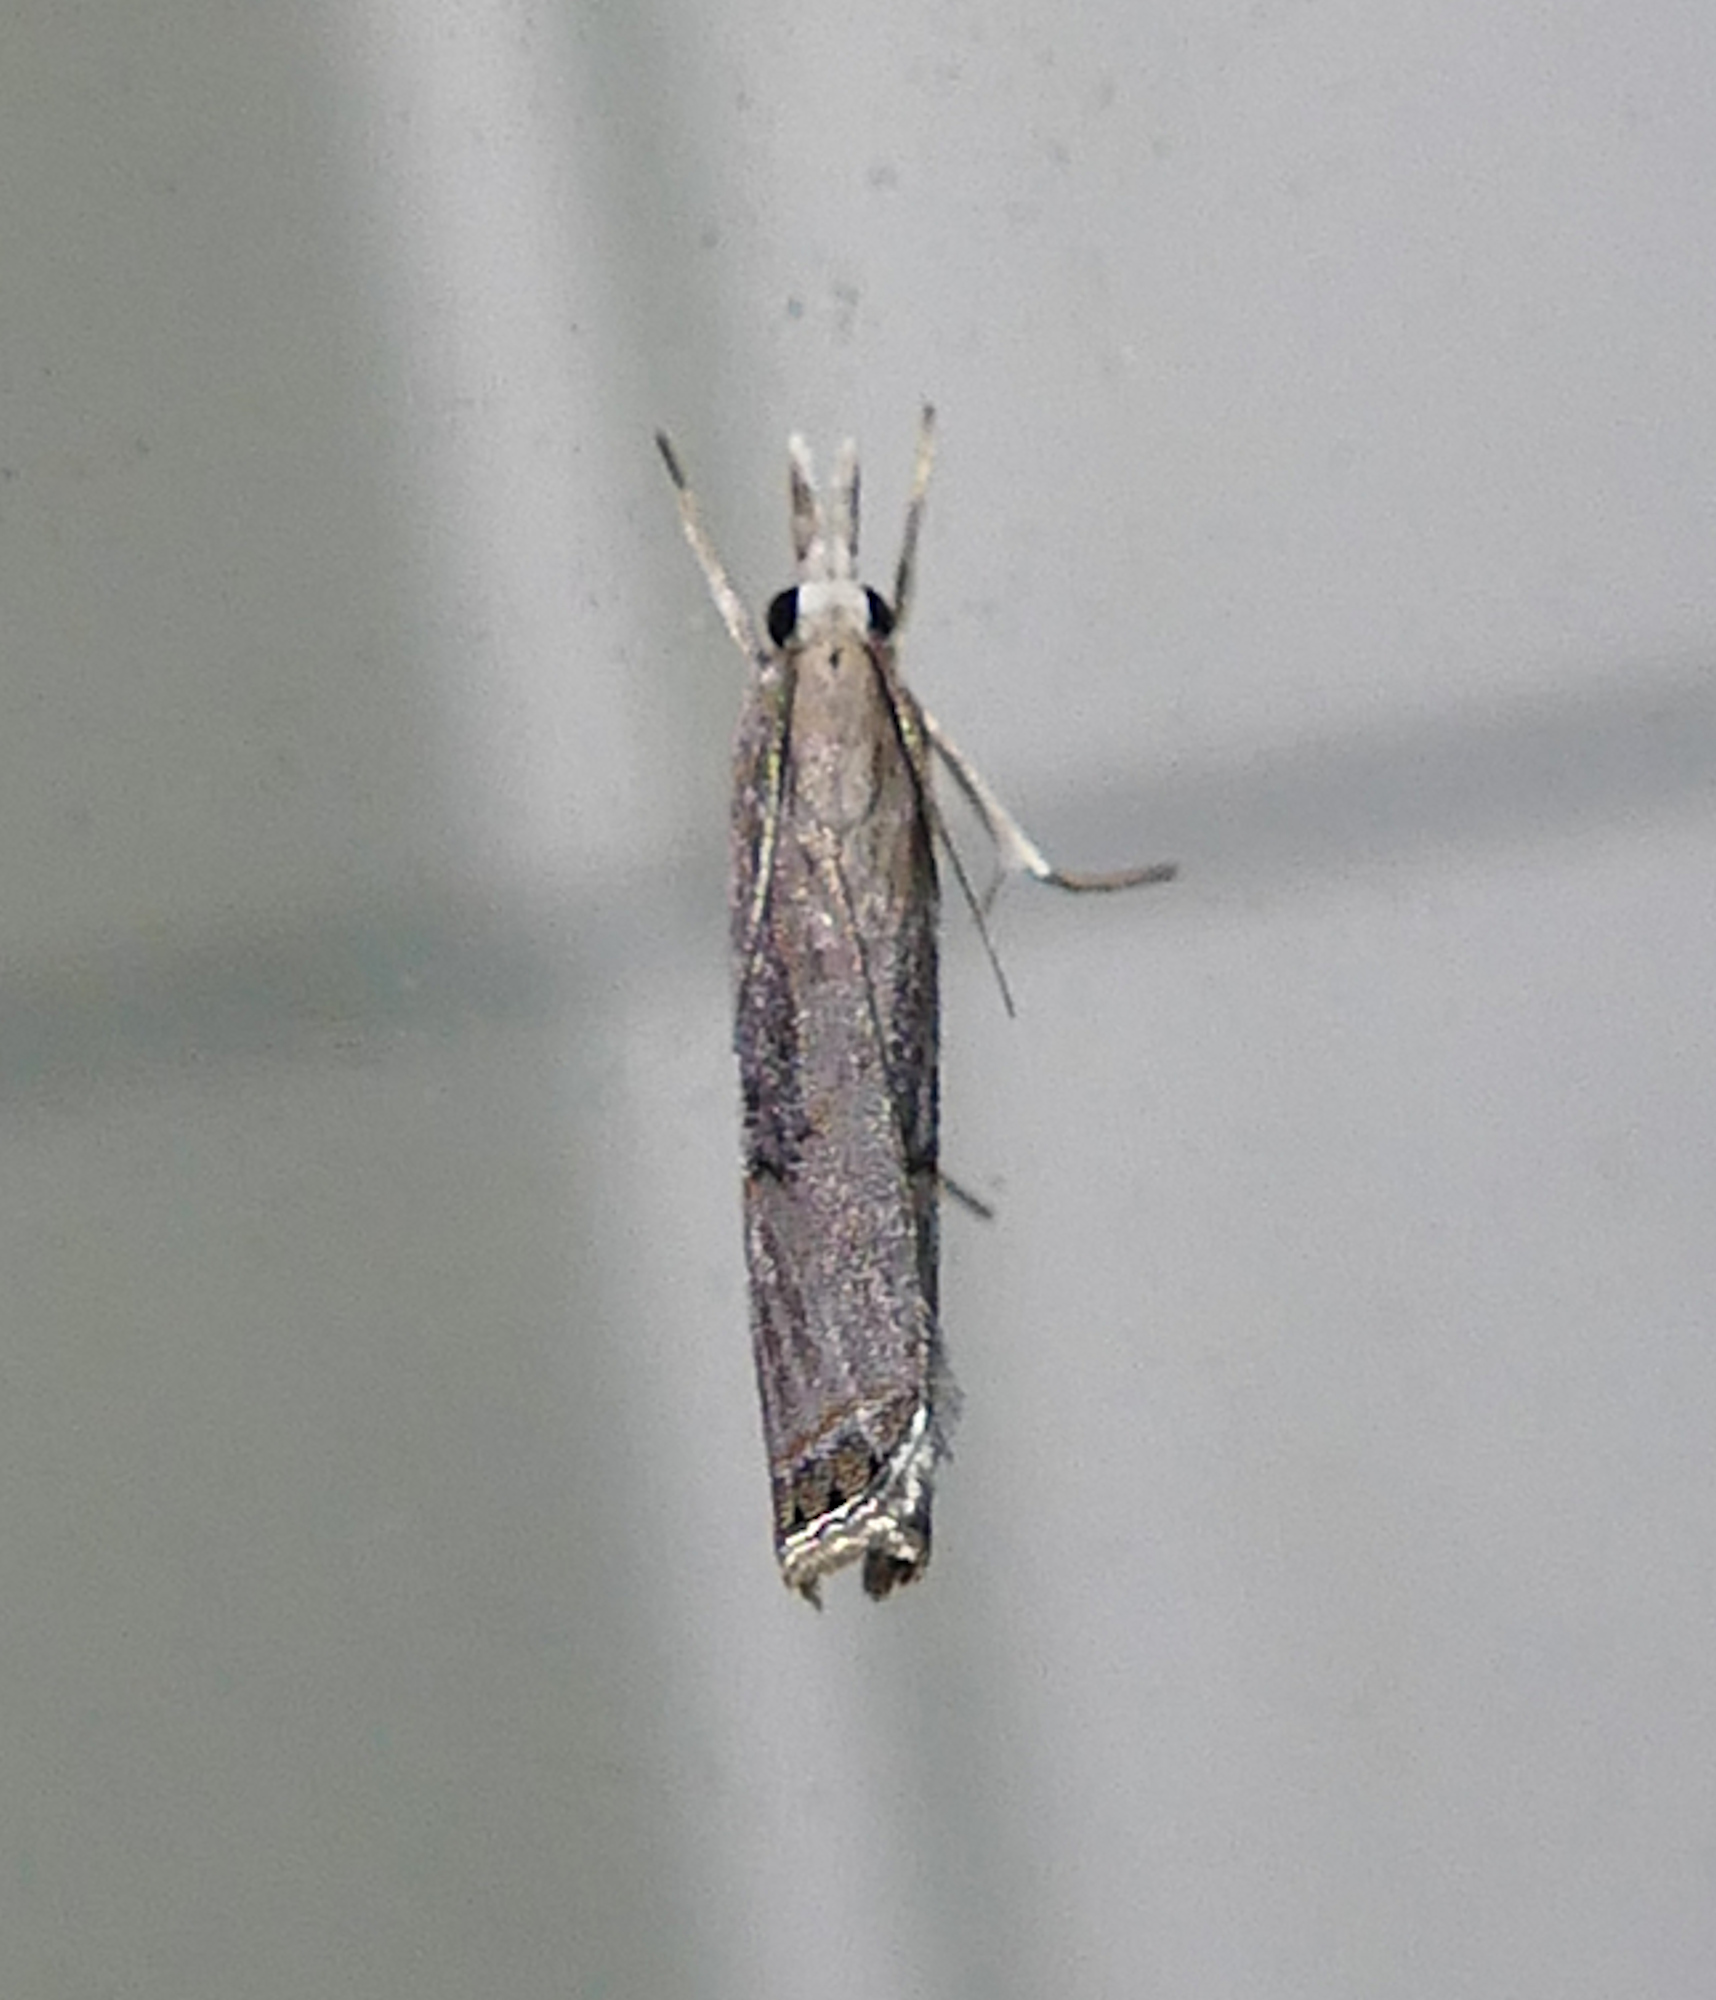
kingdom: Animalia
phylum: Arthropoda
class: Insecta
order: Lepidoptera
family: Crambidae
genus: Parapediasia
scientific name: Parapediasia teterellus
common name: Bluegrass webworm moth
